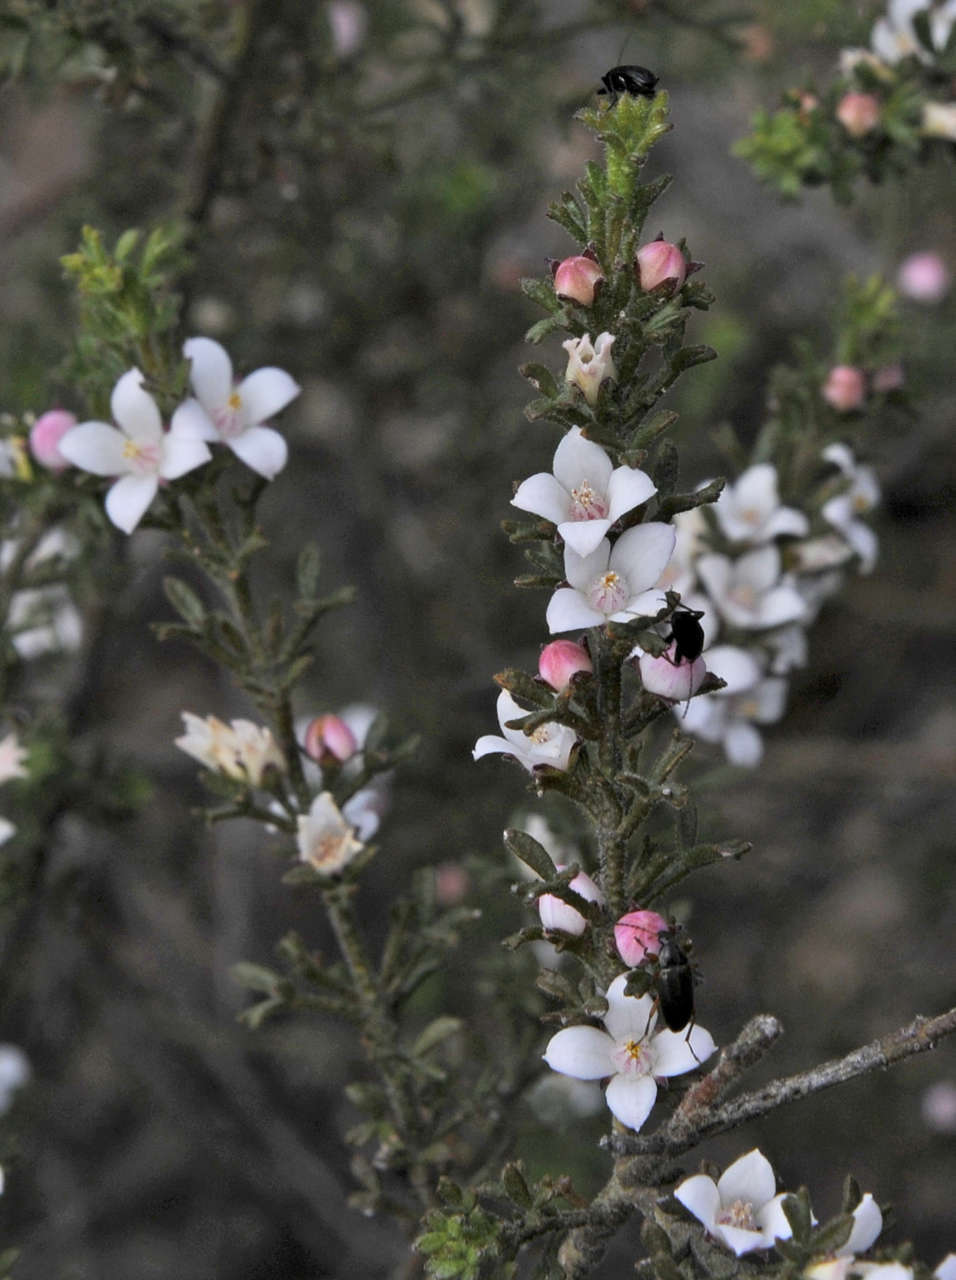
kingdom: Plantae
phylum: Tracheophyta
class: Magnoliopsida
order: Sapindales
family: Rutaceae
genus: Cyanothamnus
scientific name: Cyanothamnus anemonifolius
